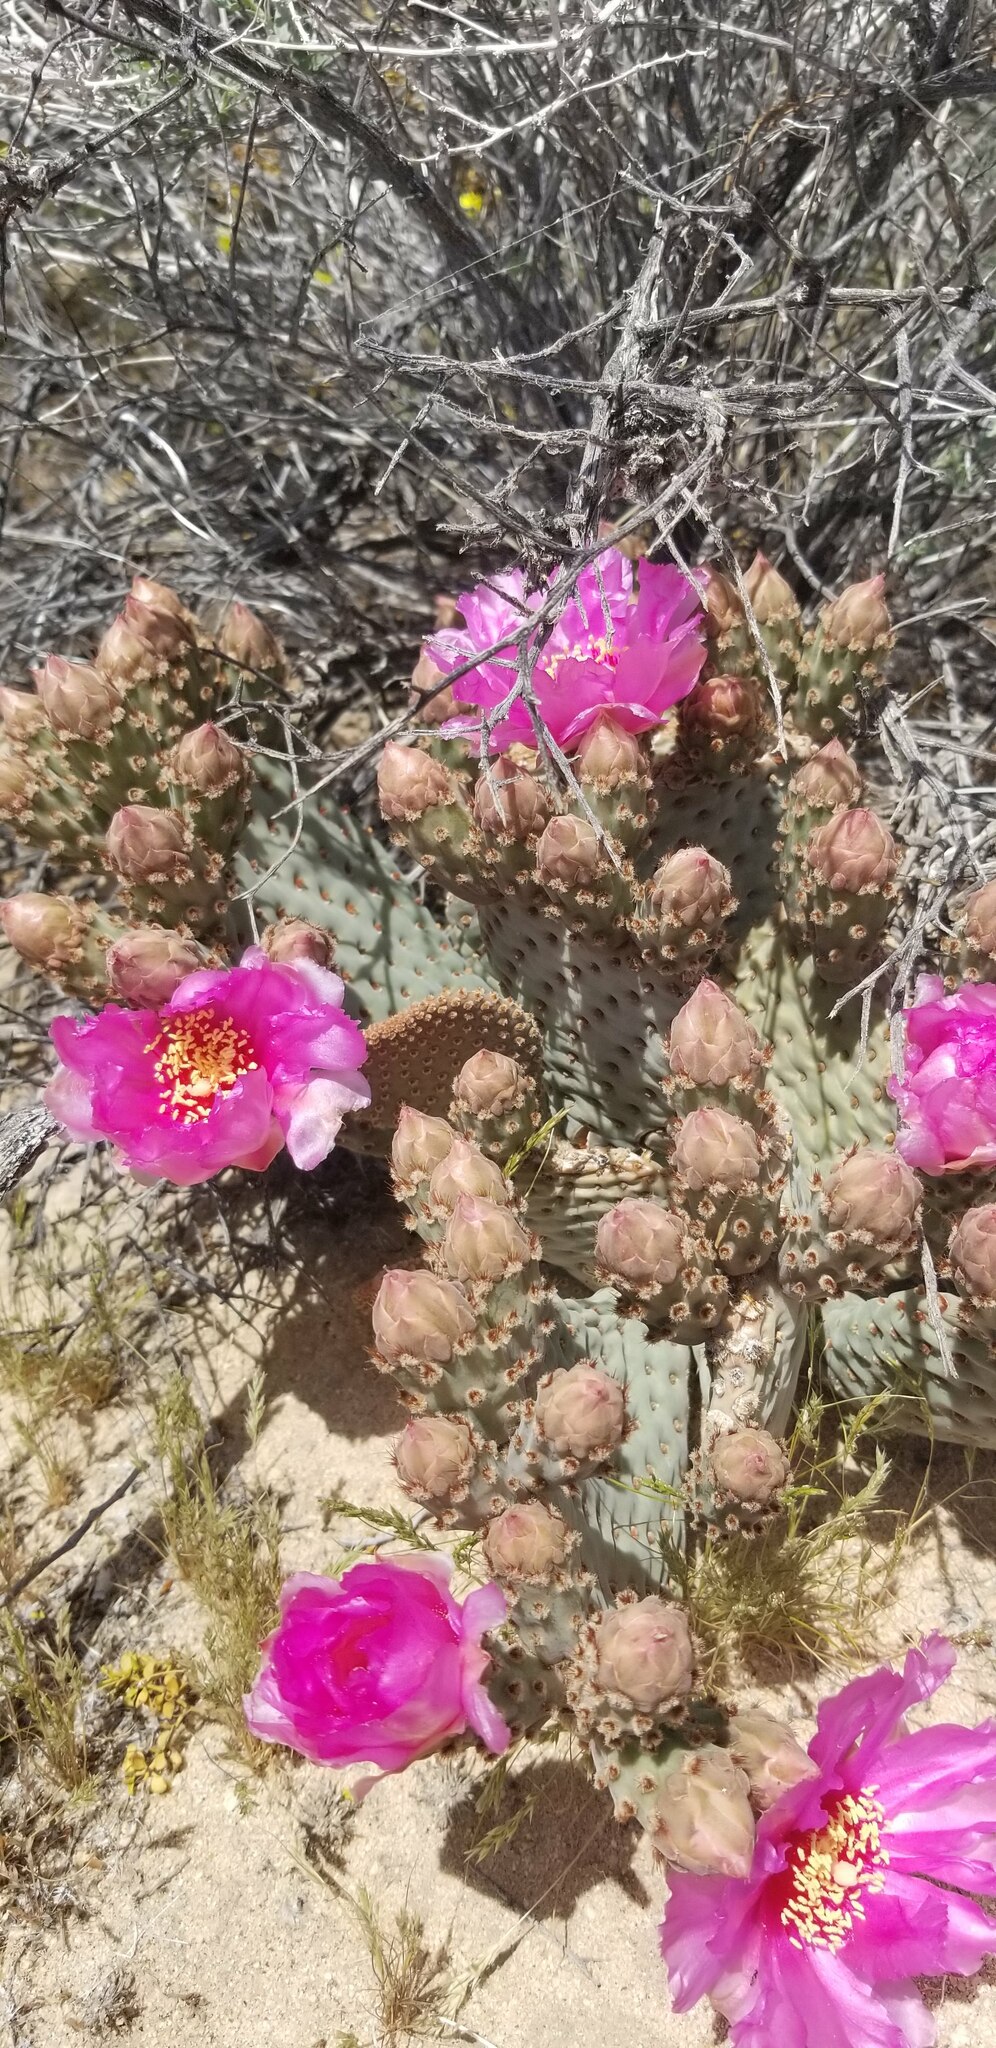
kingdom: Plantae
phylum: Tracheophyta
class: Magnoliopsida
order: Caryophyllales
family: Cactaceae
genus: Opuntia
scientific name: Opuntia basilaris
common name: Beavertail prickly-pear
